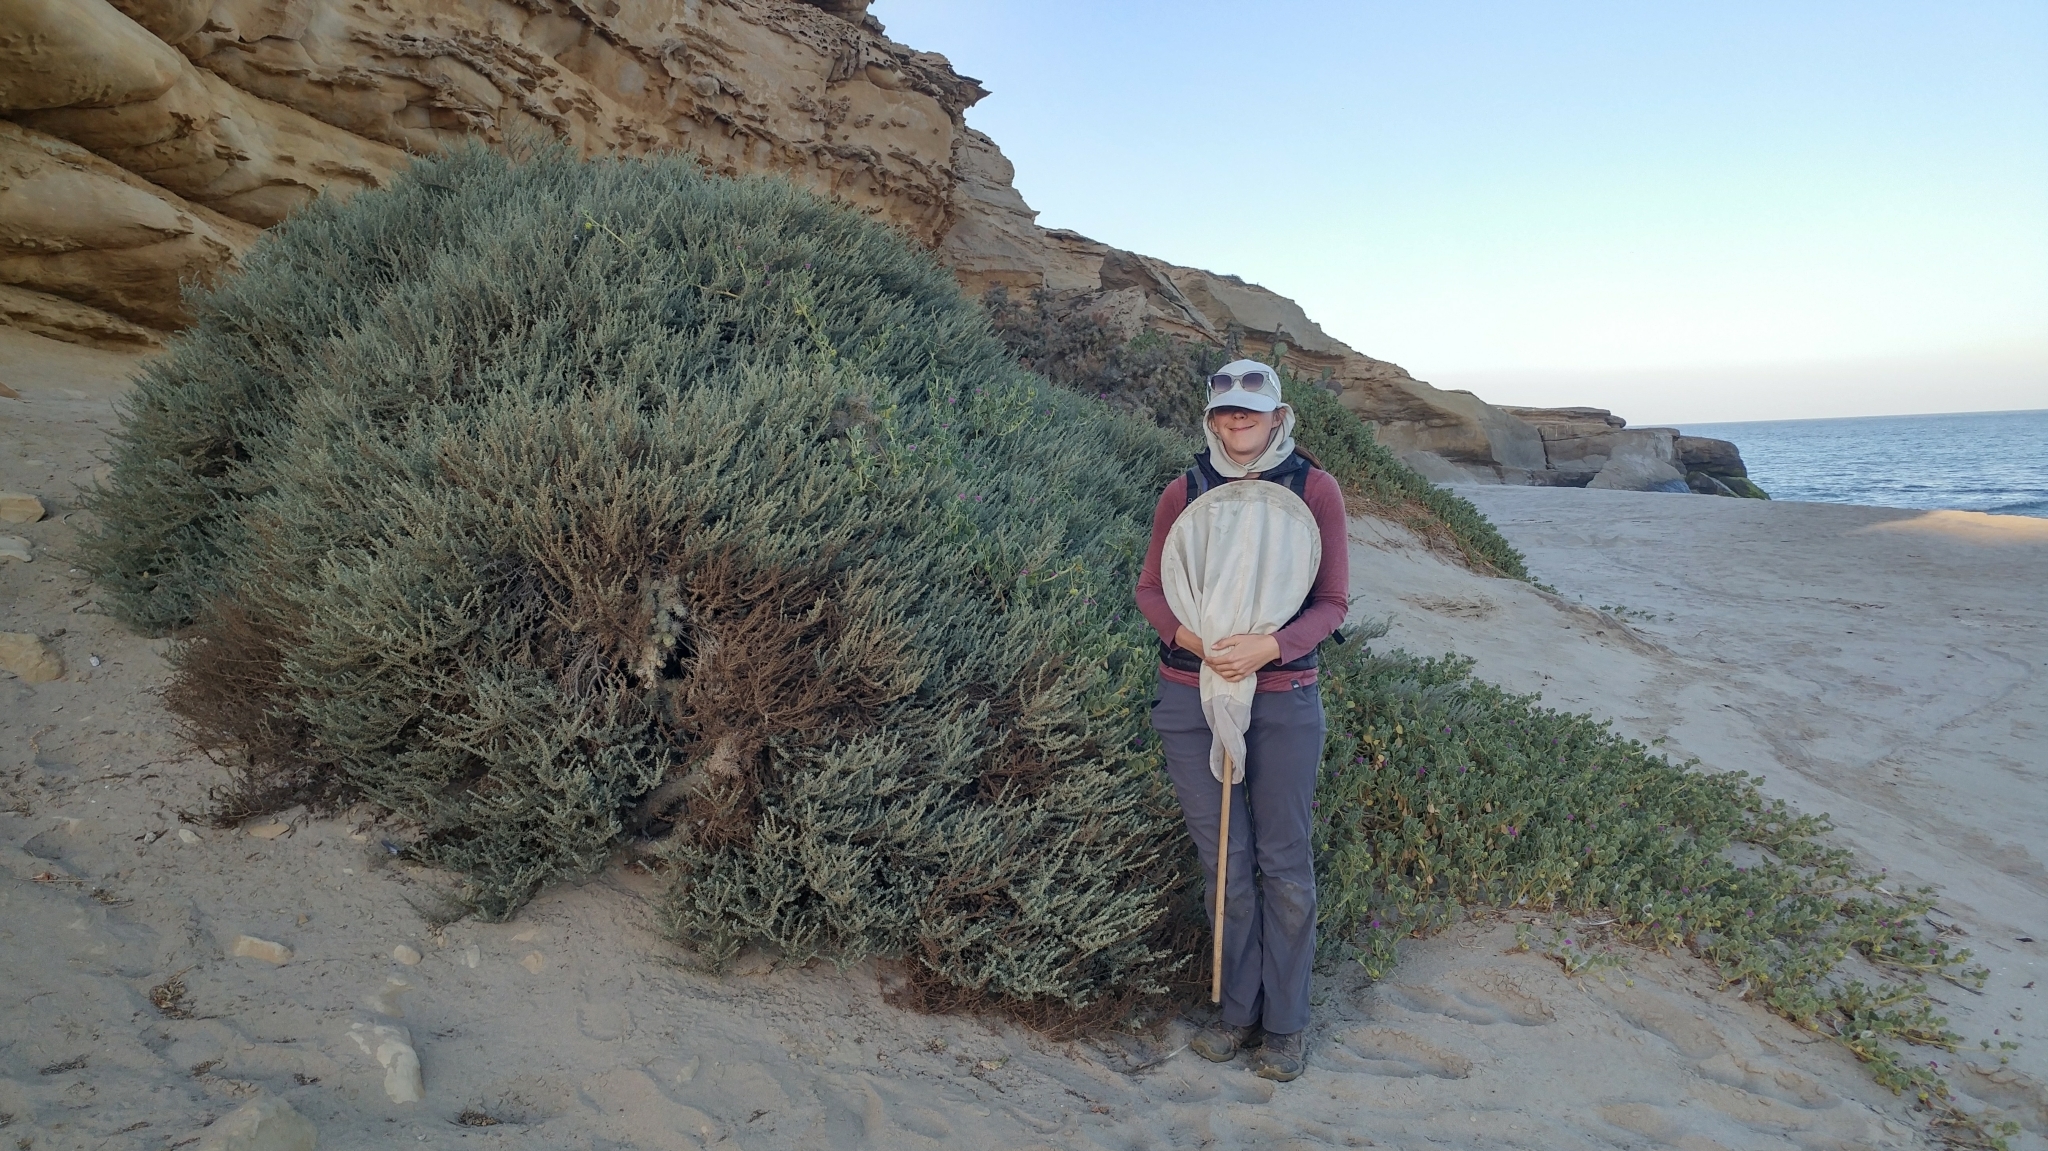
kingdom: Plantae
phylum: Tracheophyta
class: Magnoliopsida
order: Caryophyllales
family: Amaranthaceae
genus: Suaeda
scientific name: Suaeda taxifolia
